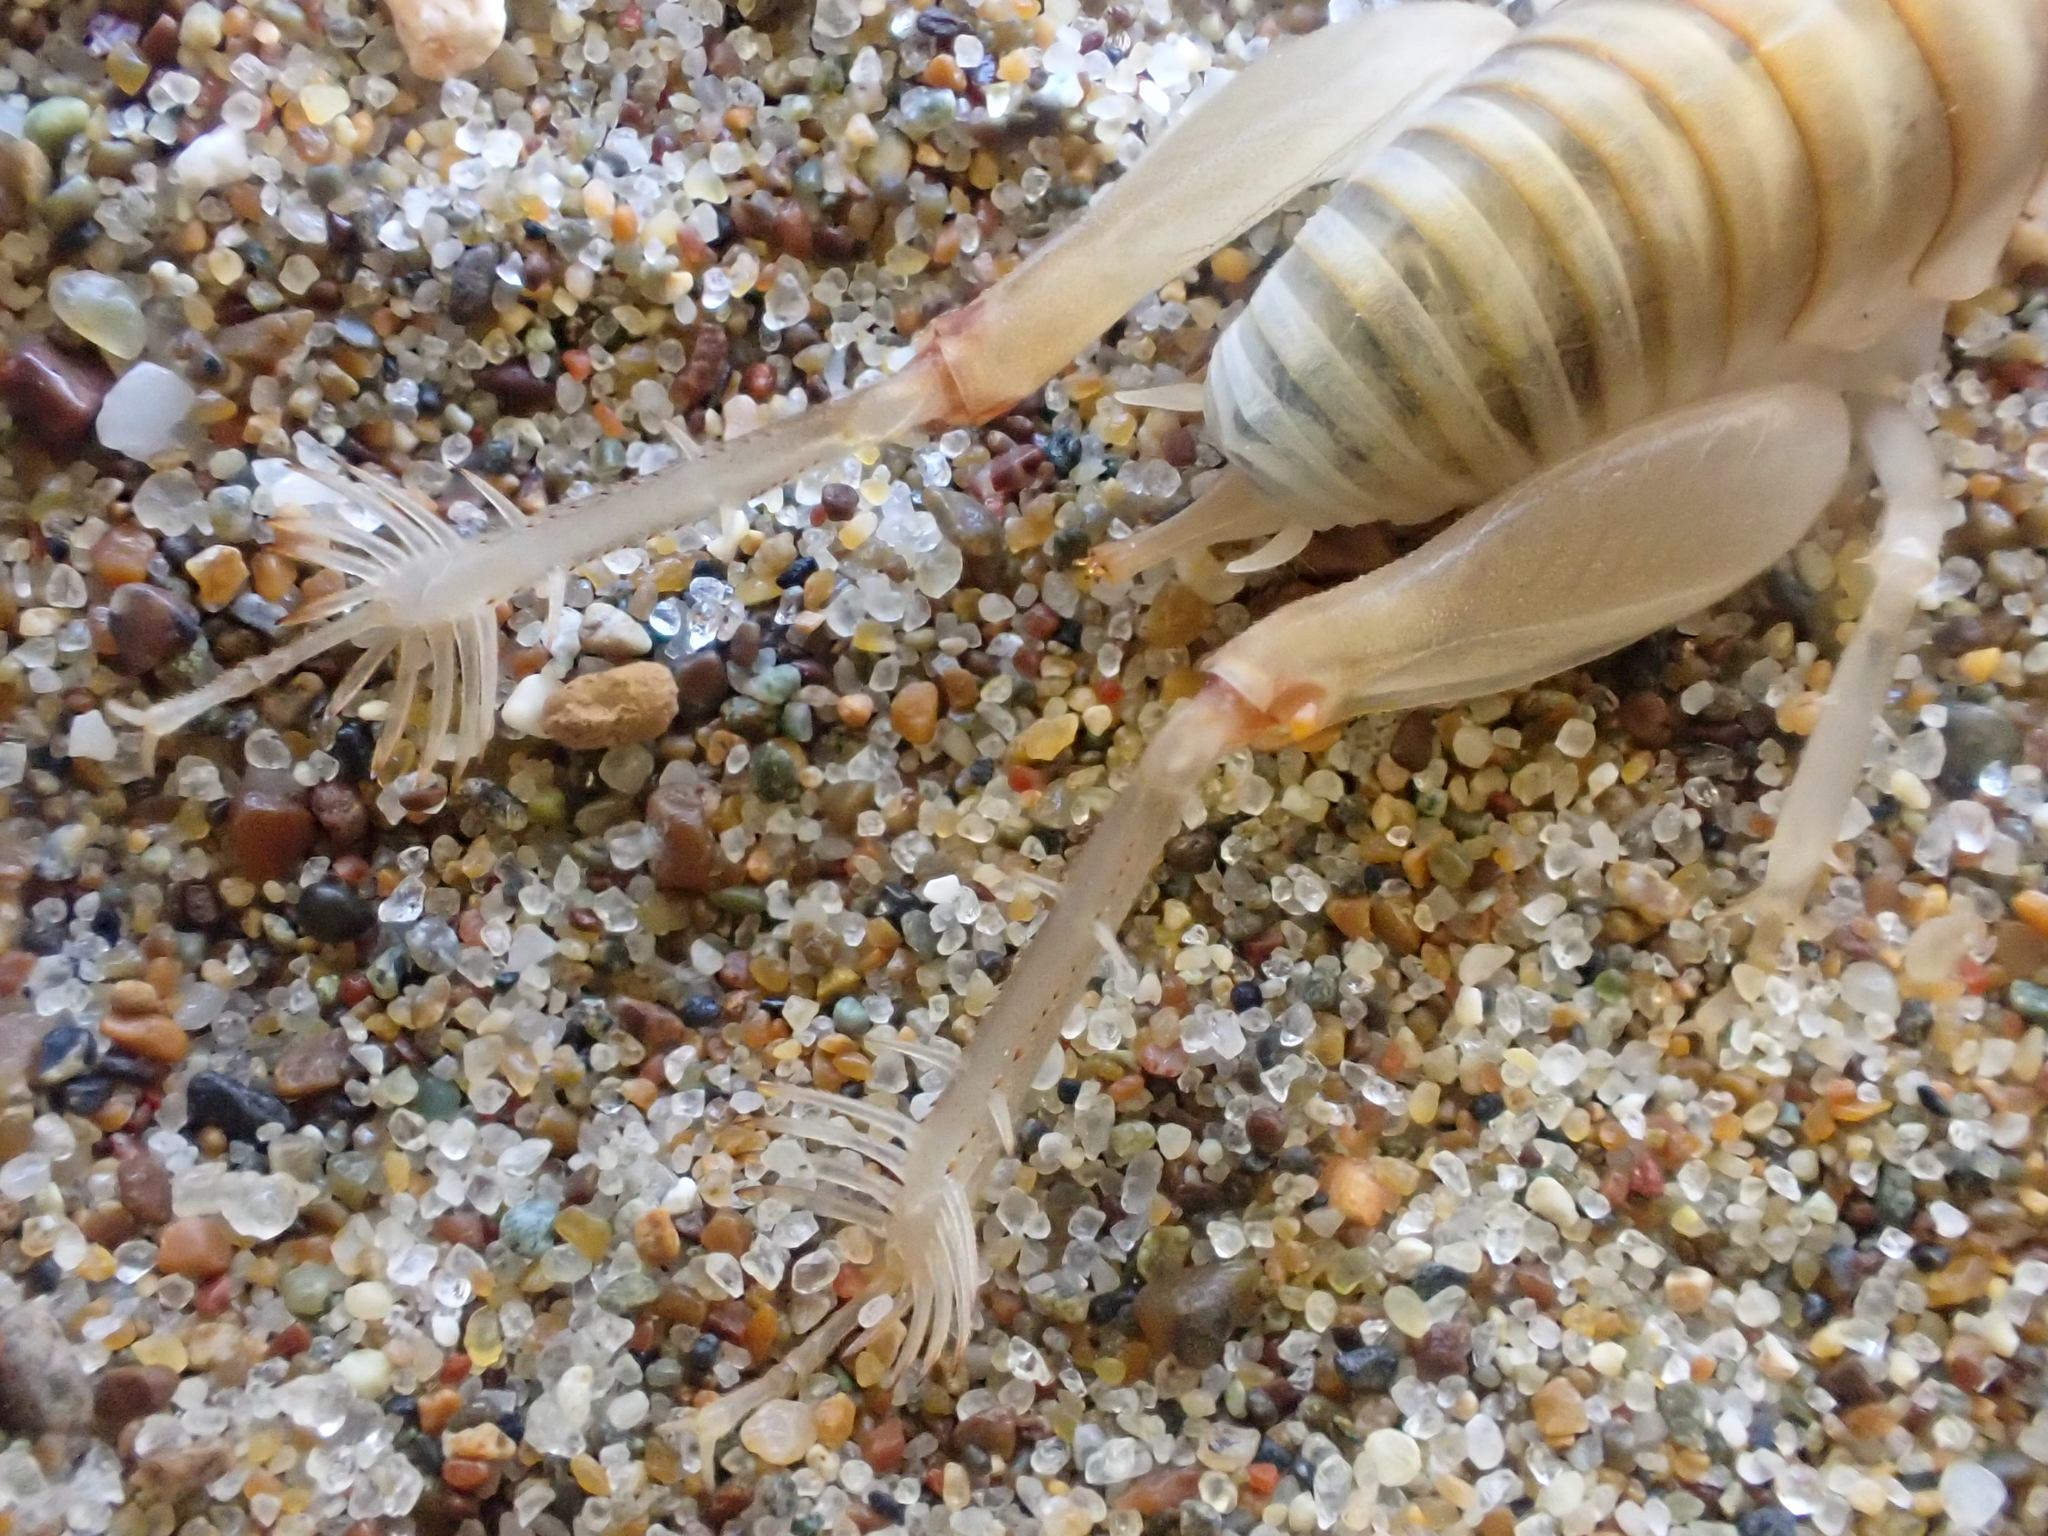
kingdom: Animalia
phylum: Arthropoda
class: Insecta
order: Orthoptera
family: Rhaphidophoridae
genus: Rhachocnemis
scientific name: Rhachocnemis validus
